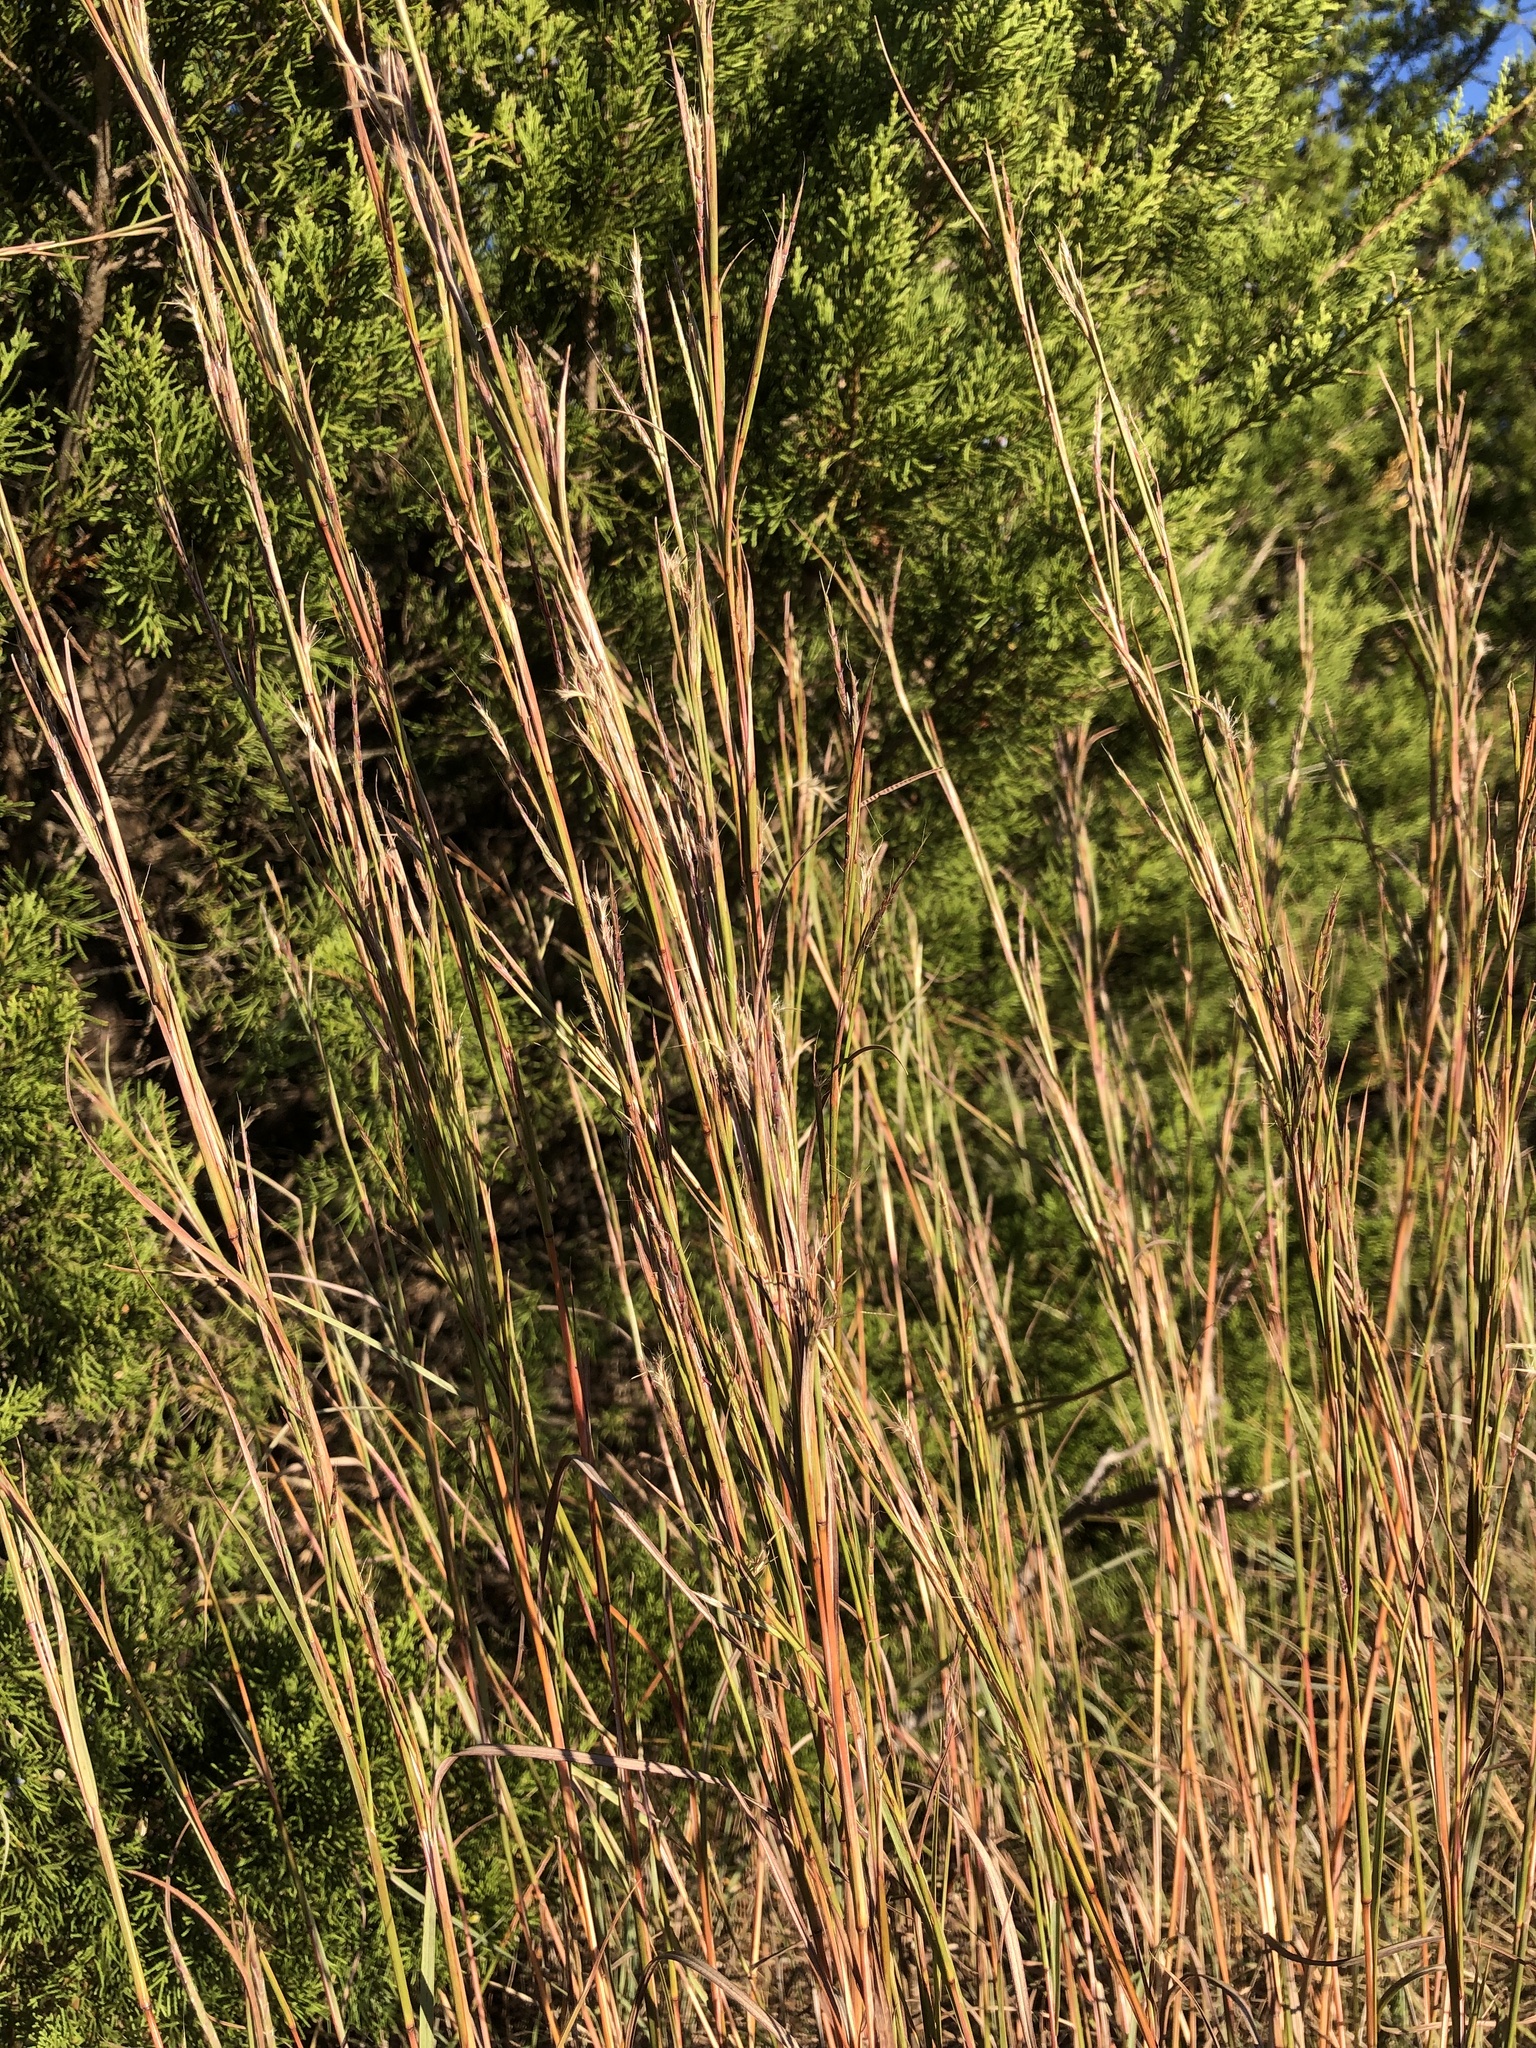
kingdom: Plantae
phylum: Tracheophyta
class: Liliopsida
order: Poales
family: Poaceae
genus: Schizachyrium
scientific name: Schizachyrium scoparium
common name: Little bluestem
